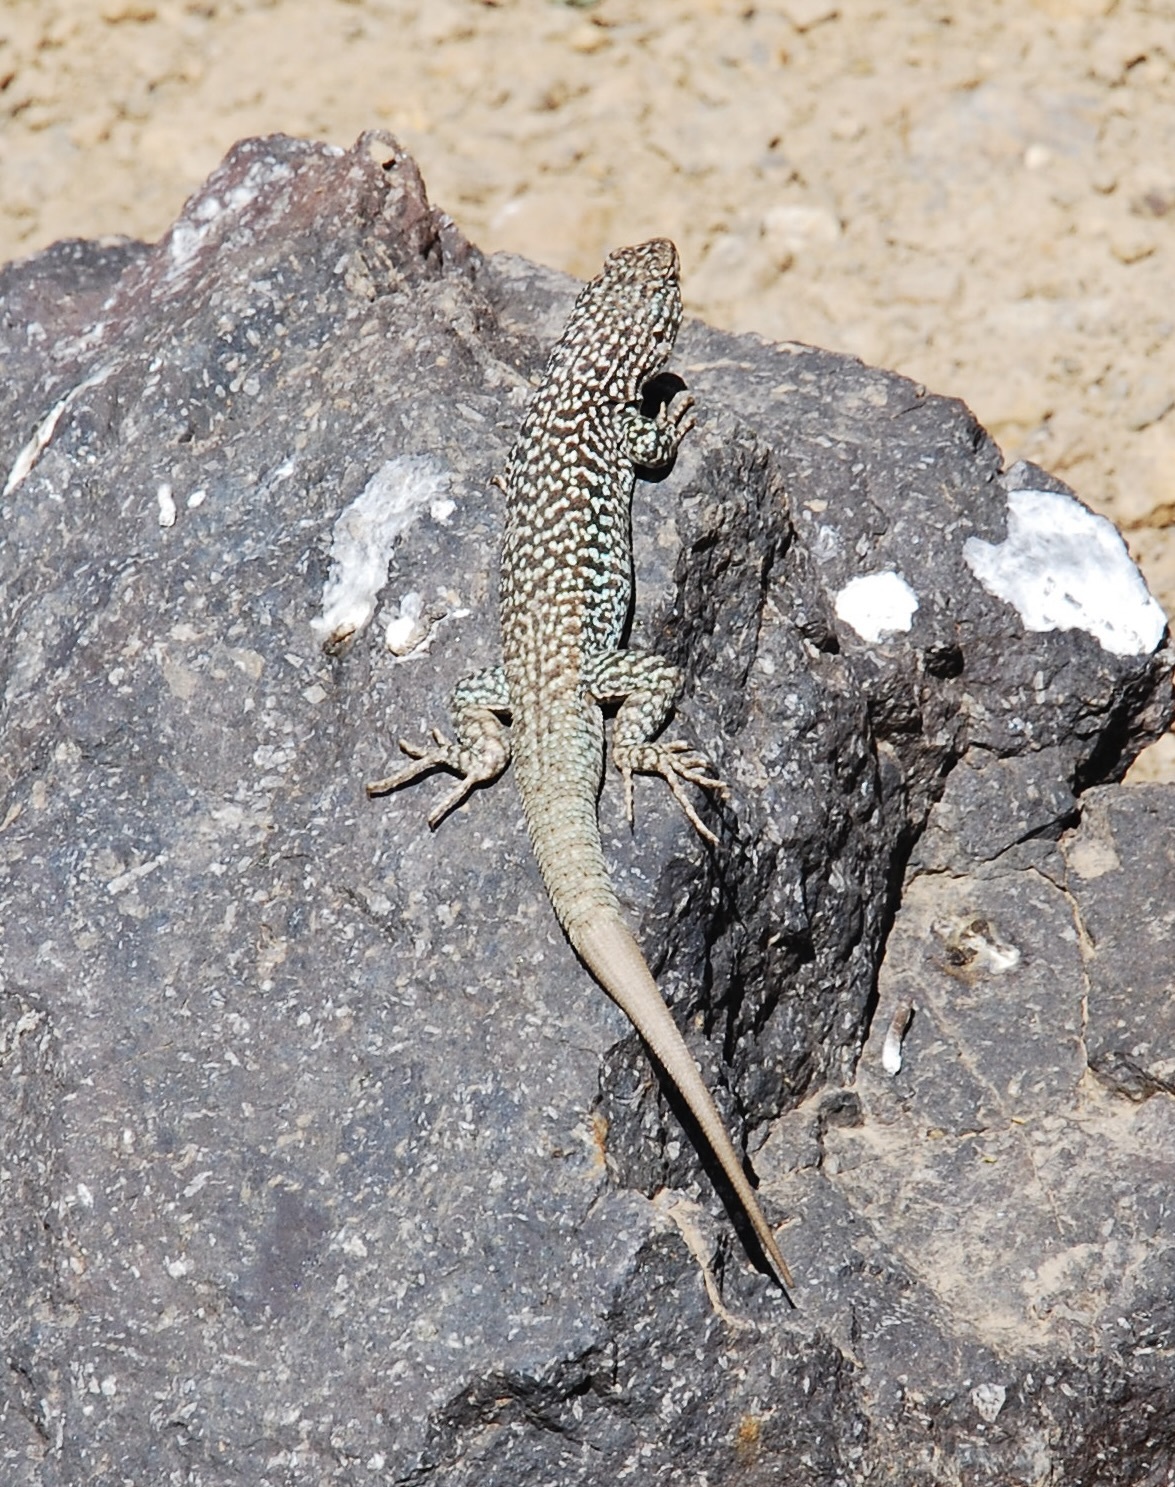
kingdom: Animalia
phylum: Chordata
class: Squamata
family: Liolaemidae
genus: Liolaemus
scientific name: Liolaemus nigroviridis
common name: Black-green tree iguana
